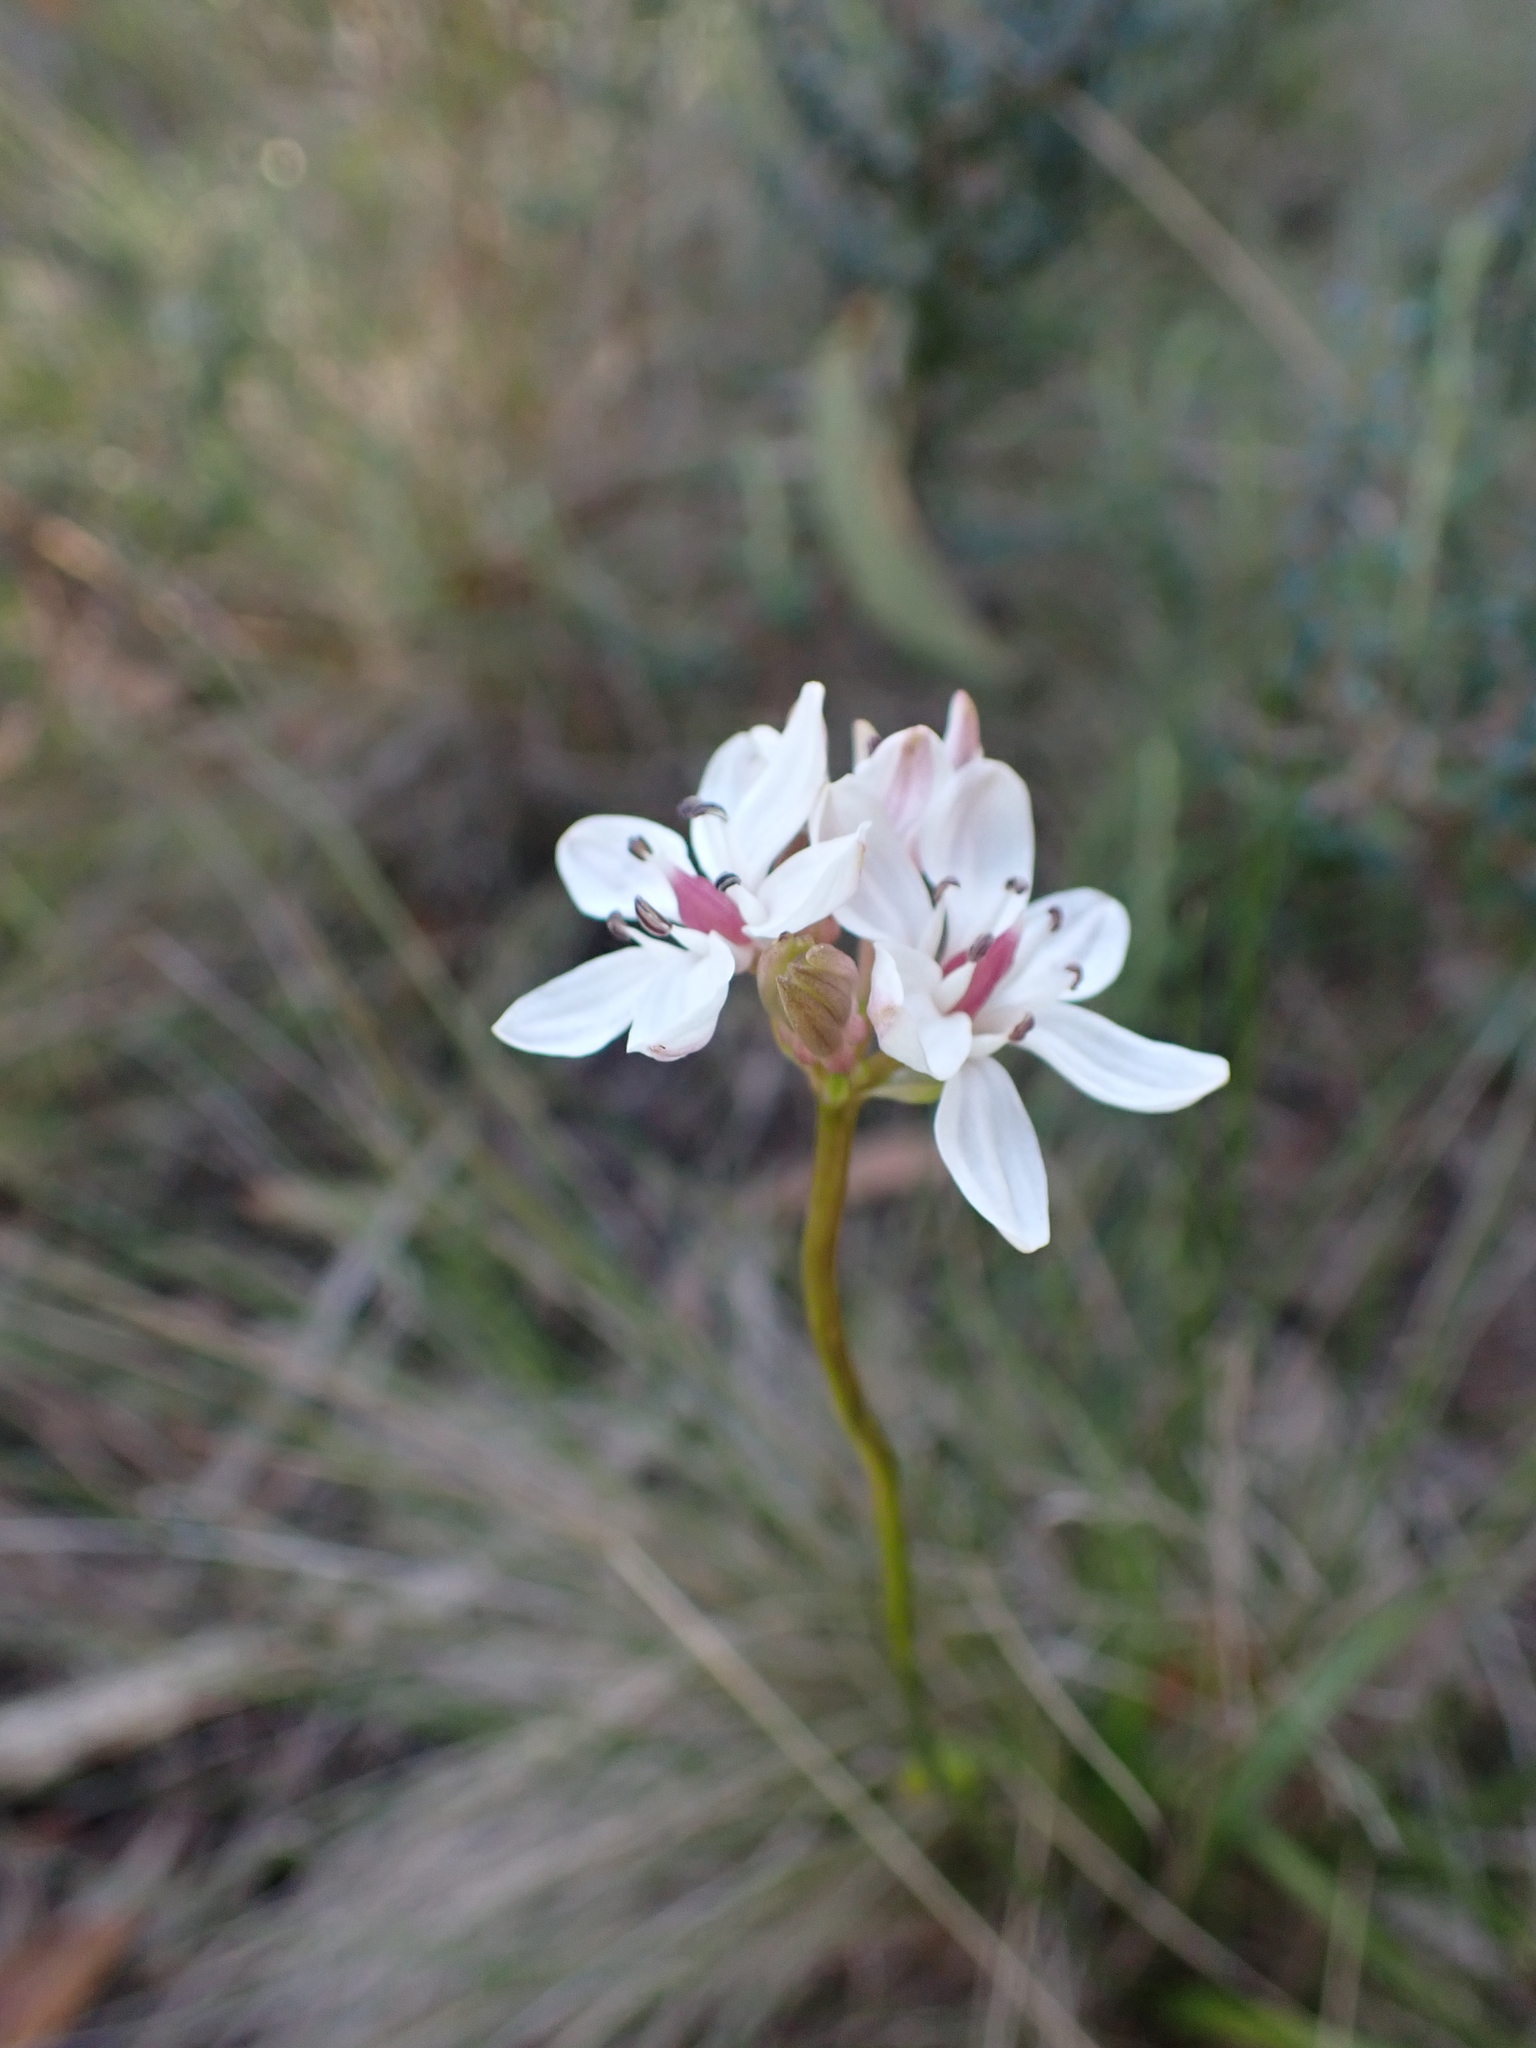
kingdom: Plantae
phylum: Tracheophyta
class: Liliopsida
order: Liliales
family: Colchicaceae
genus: Burchardia
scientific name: Burchardia umbellata
